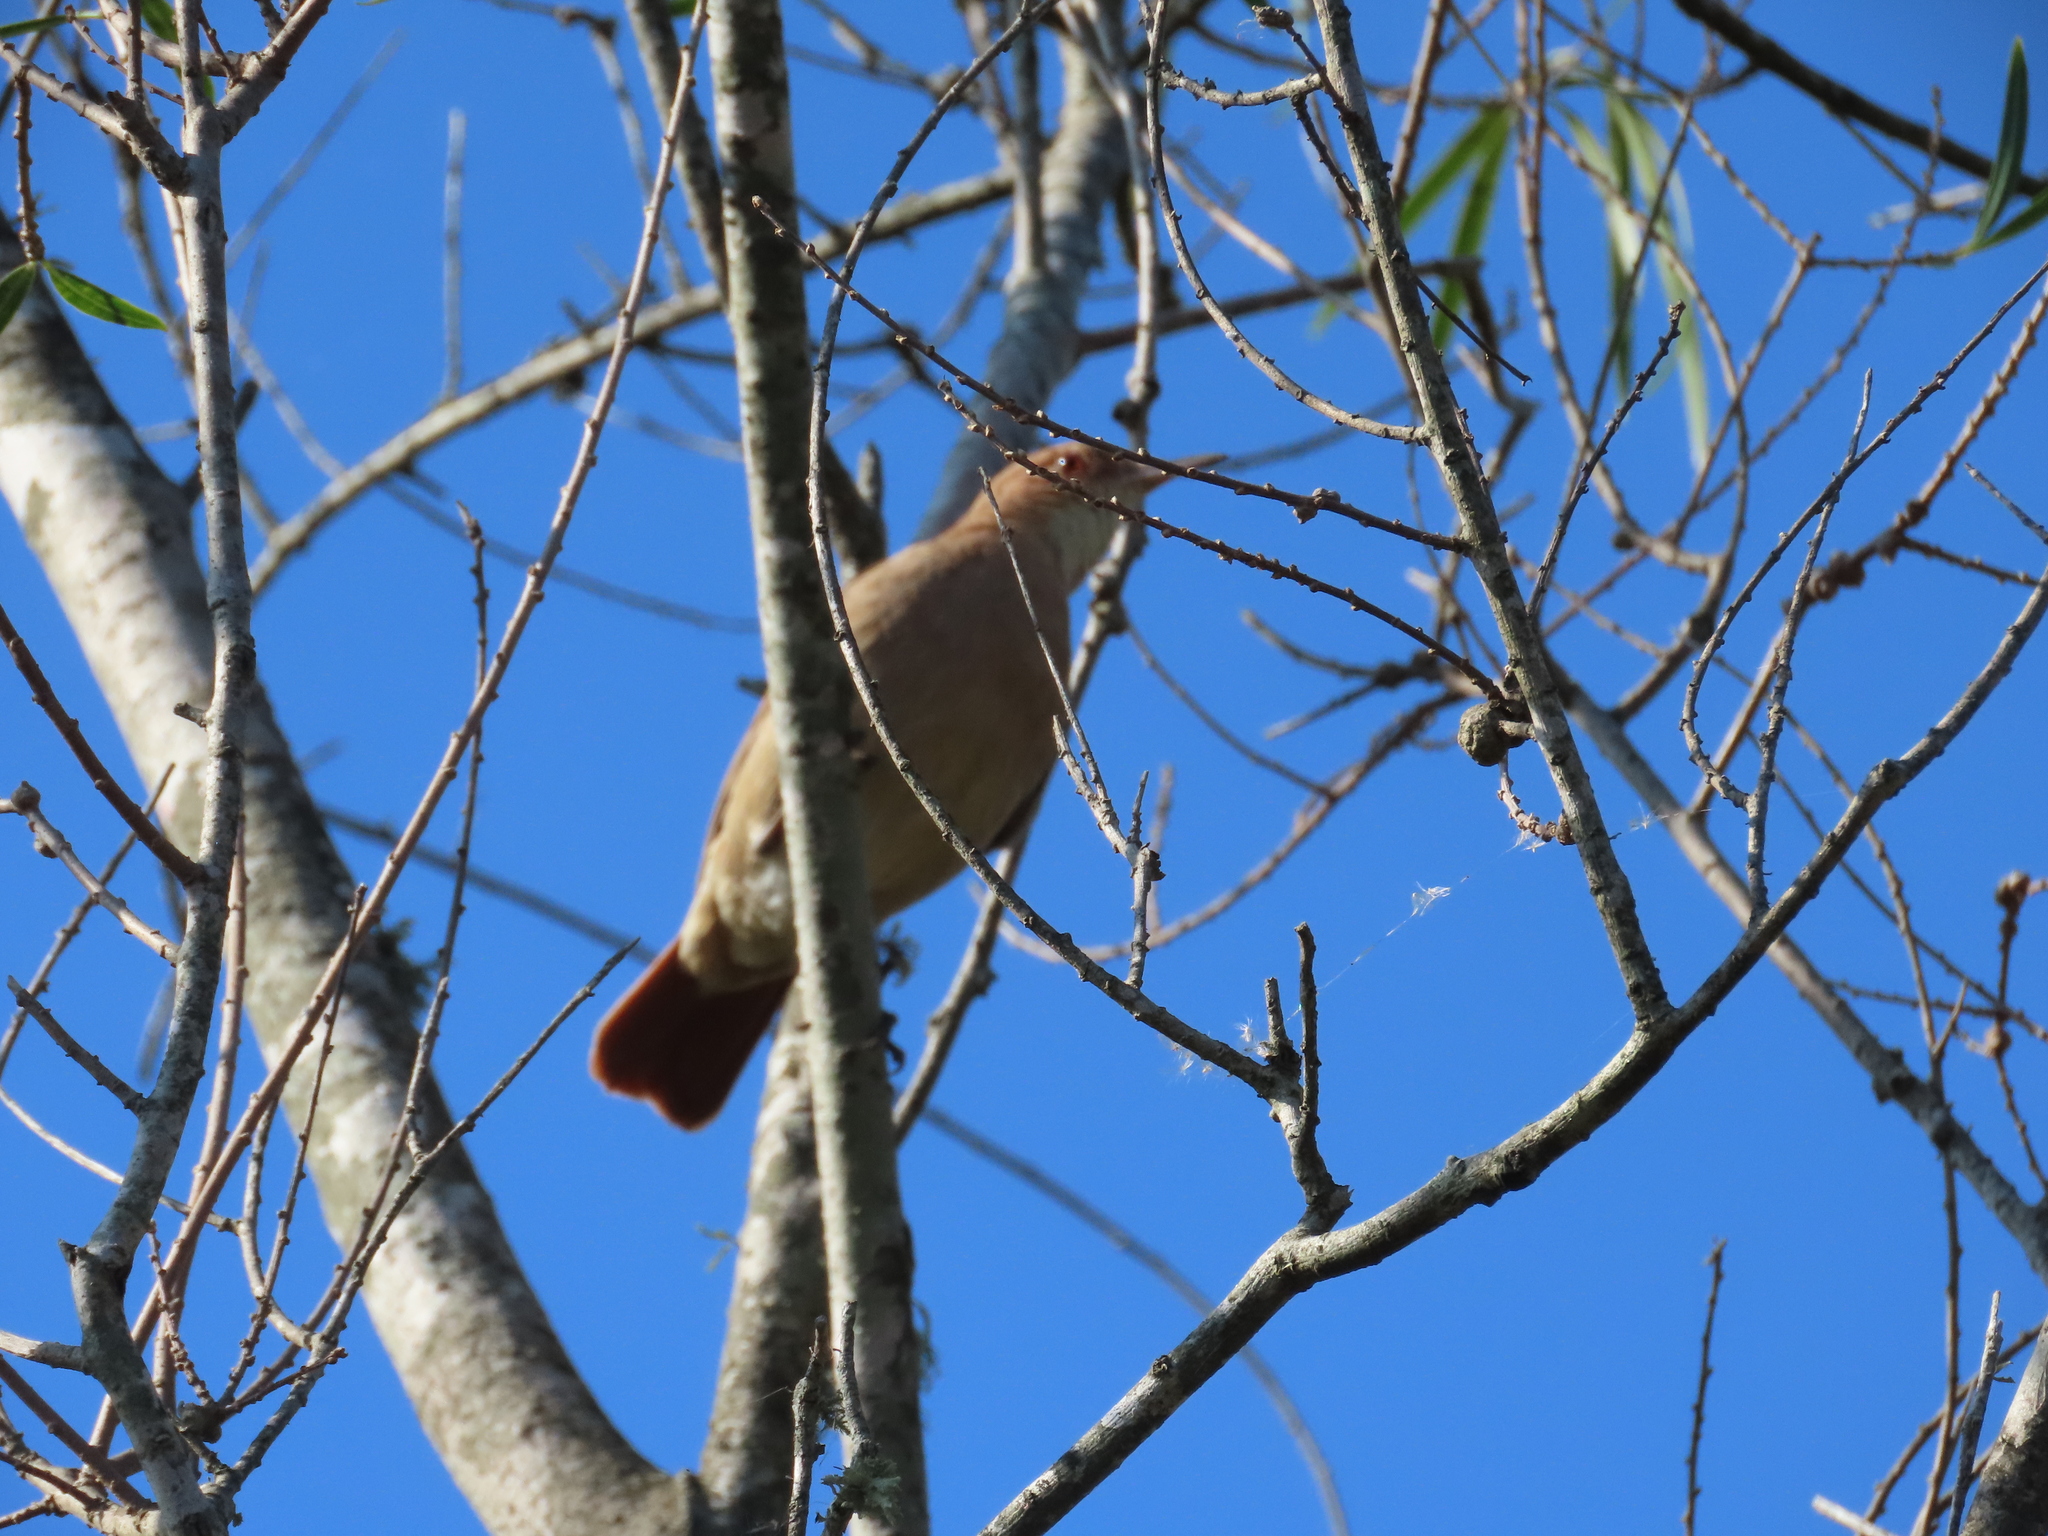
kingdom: Animalia
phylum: Chordata
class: Aves
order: Passeriformes
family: Furnariidae
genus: Furnarius
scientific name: Furnarius rufus
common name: Rufous hornero
